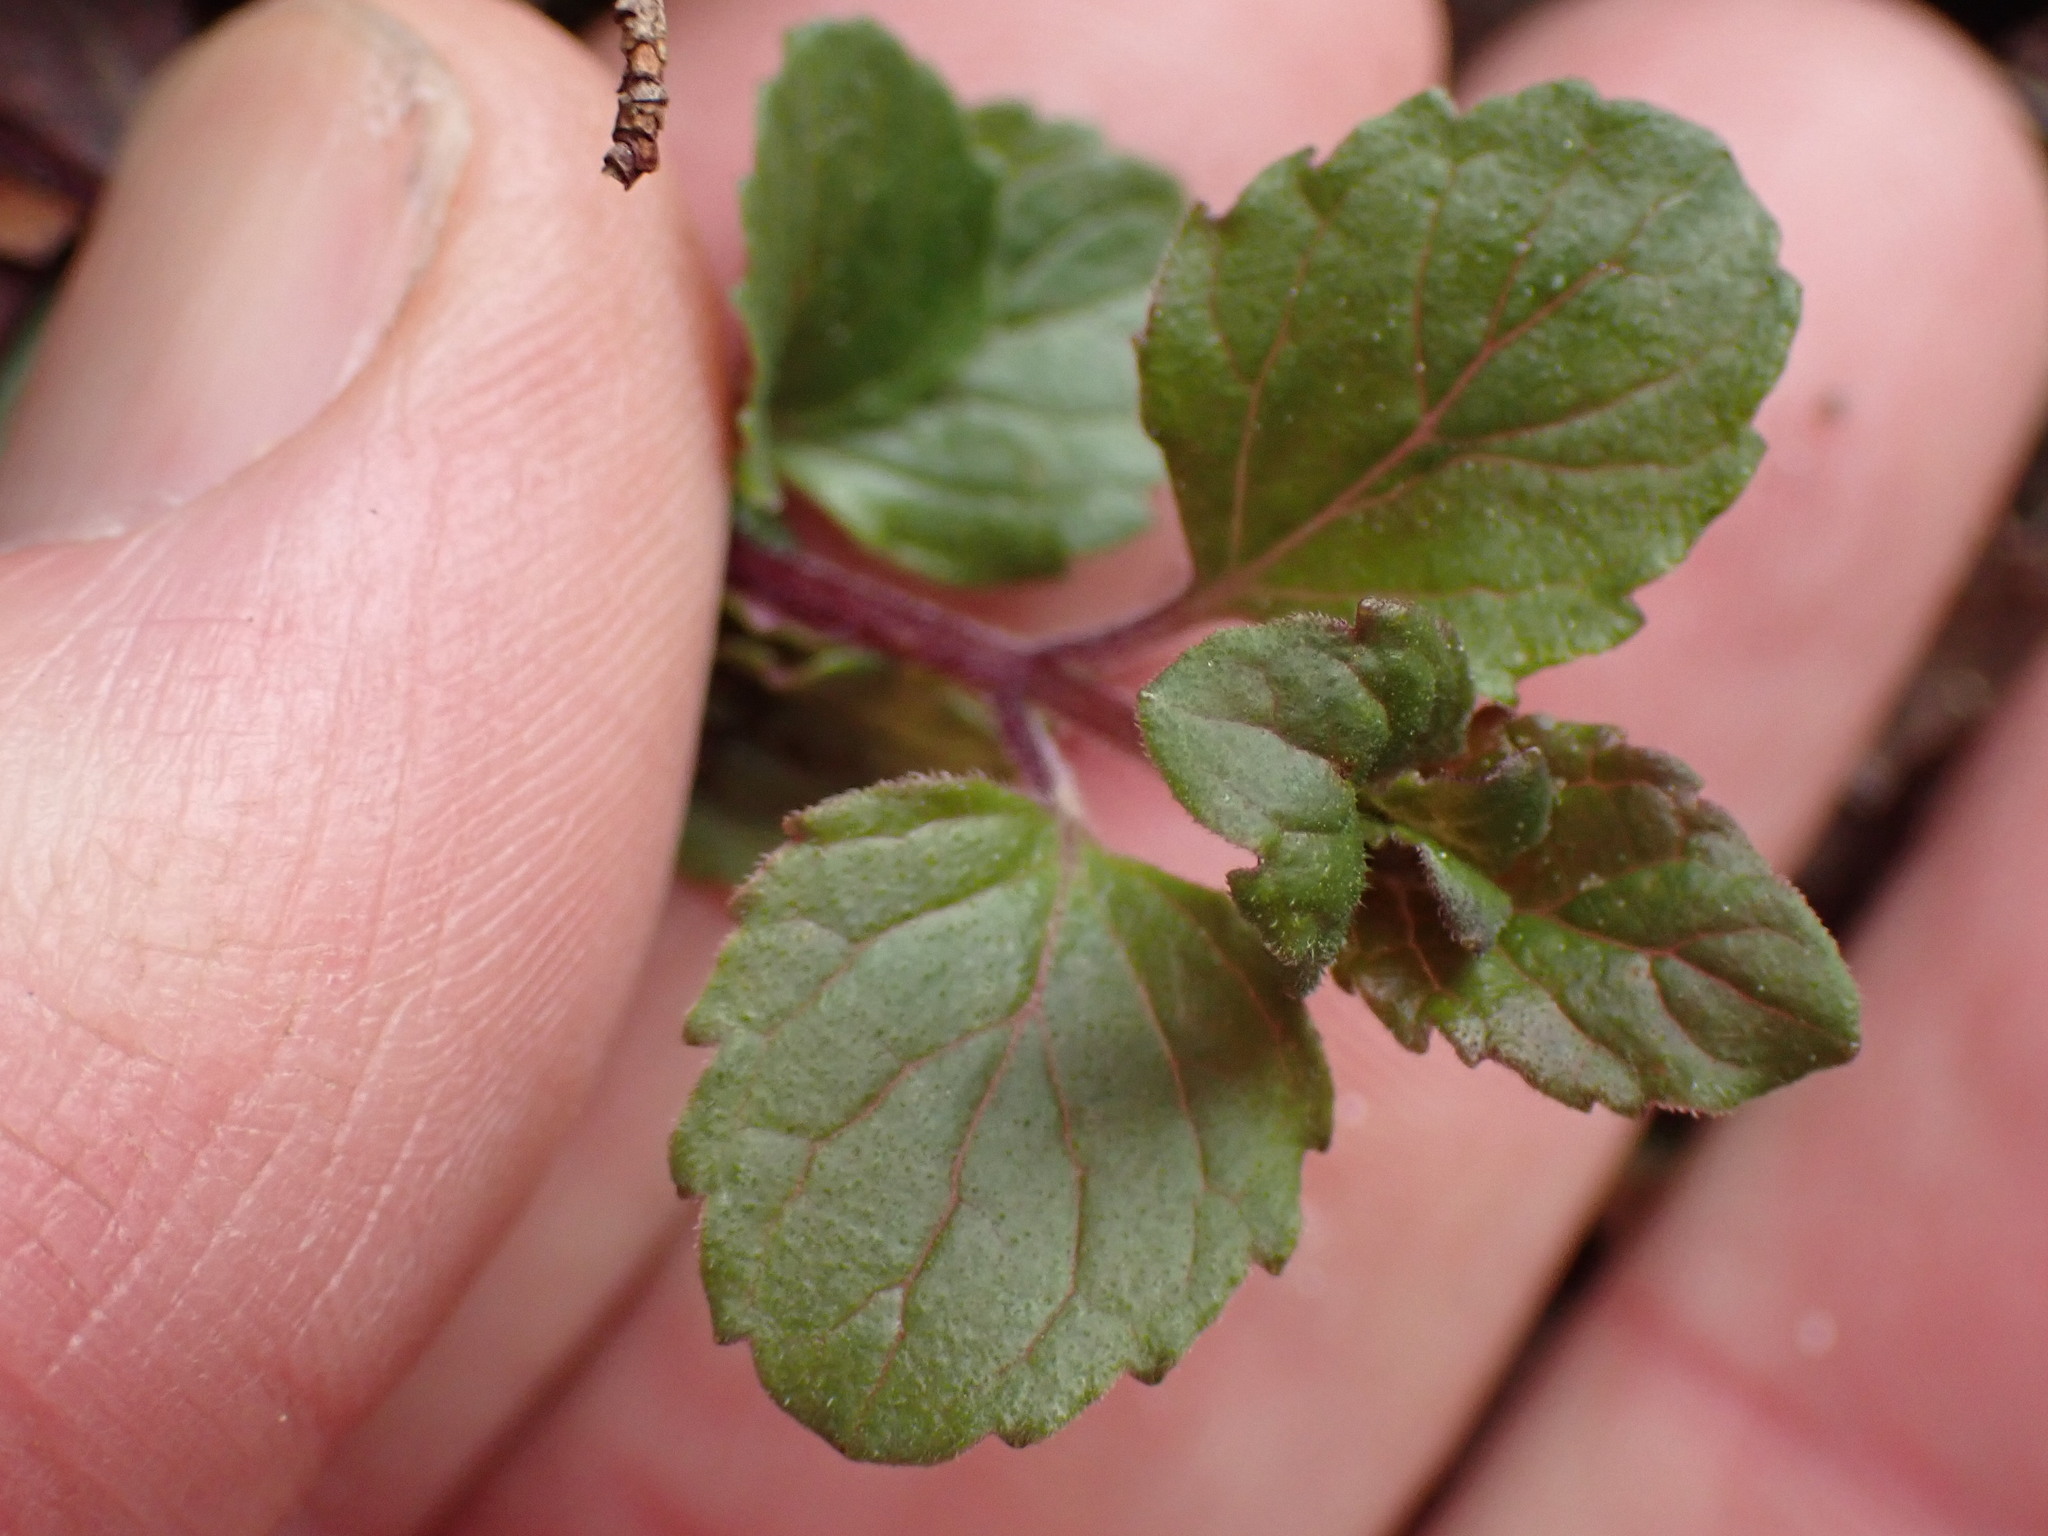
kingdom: Plantae
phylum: Tracheophyta
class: Magnoliopsida
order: Lamiales
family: Lamiaceae
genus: Micromeria
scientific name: Micromeria douglasii
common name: Yerba buena
